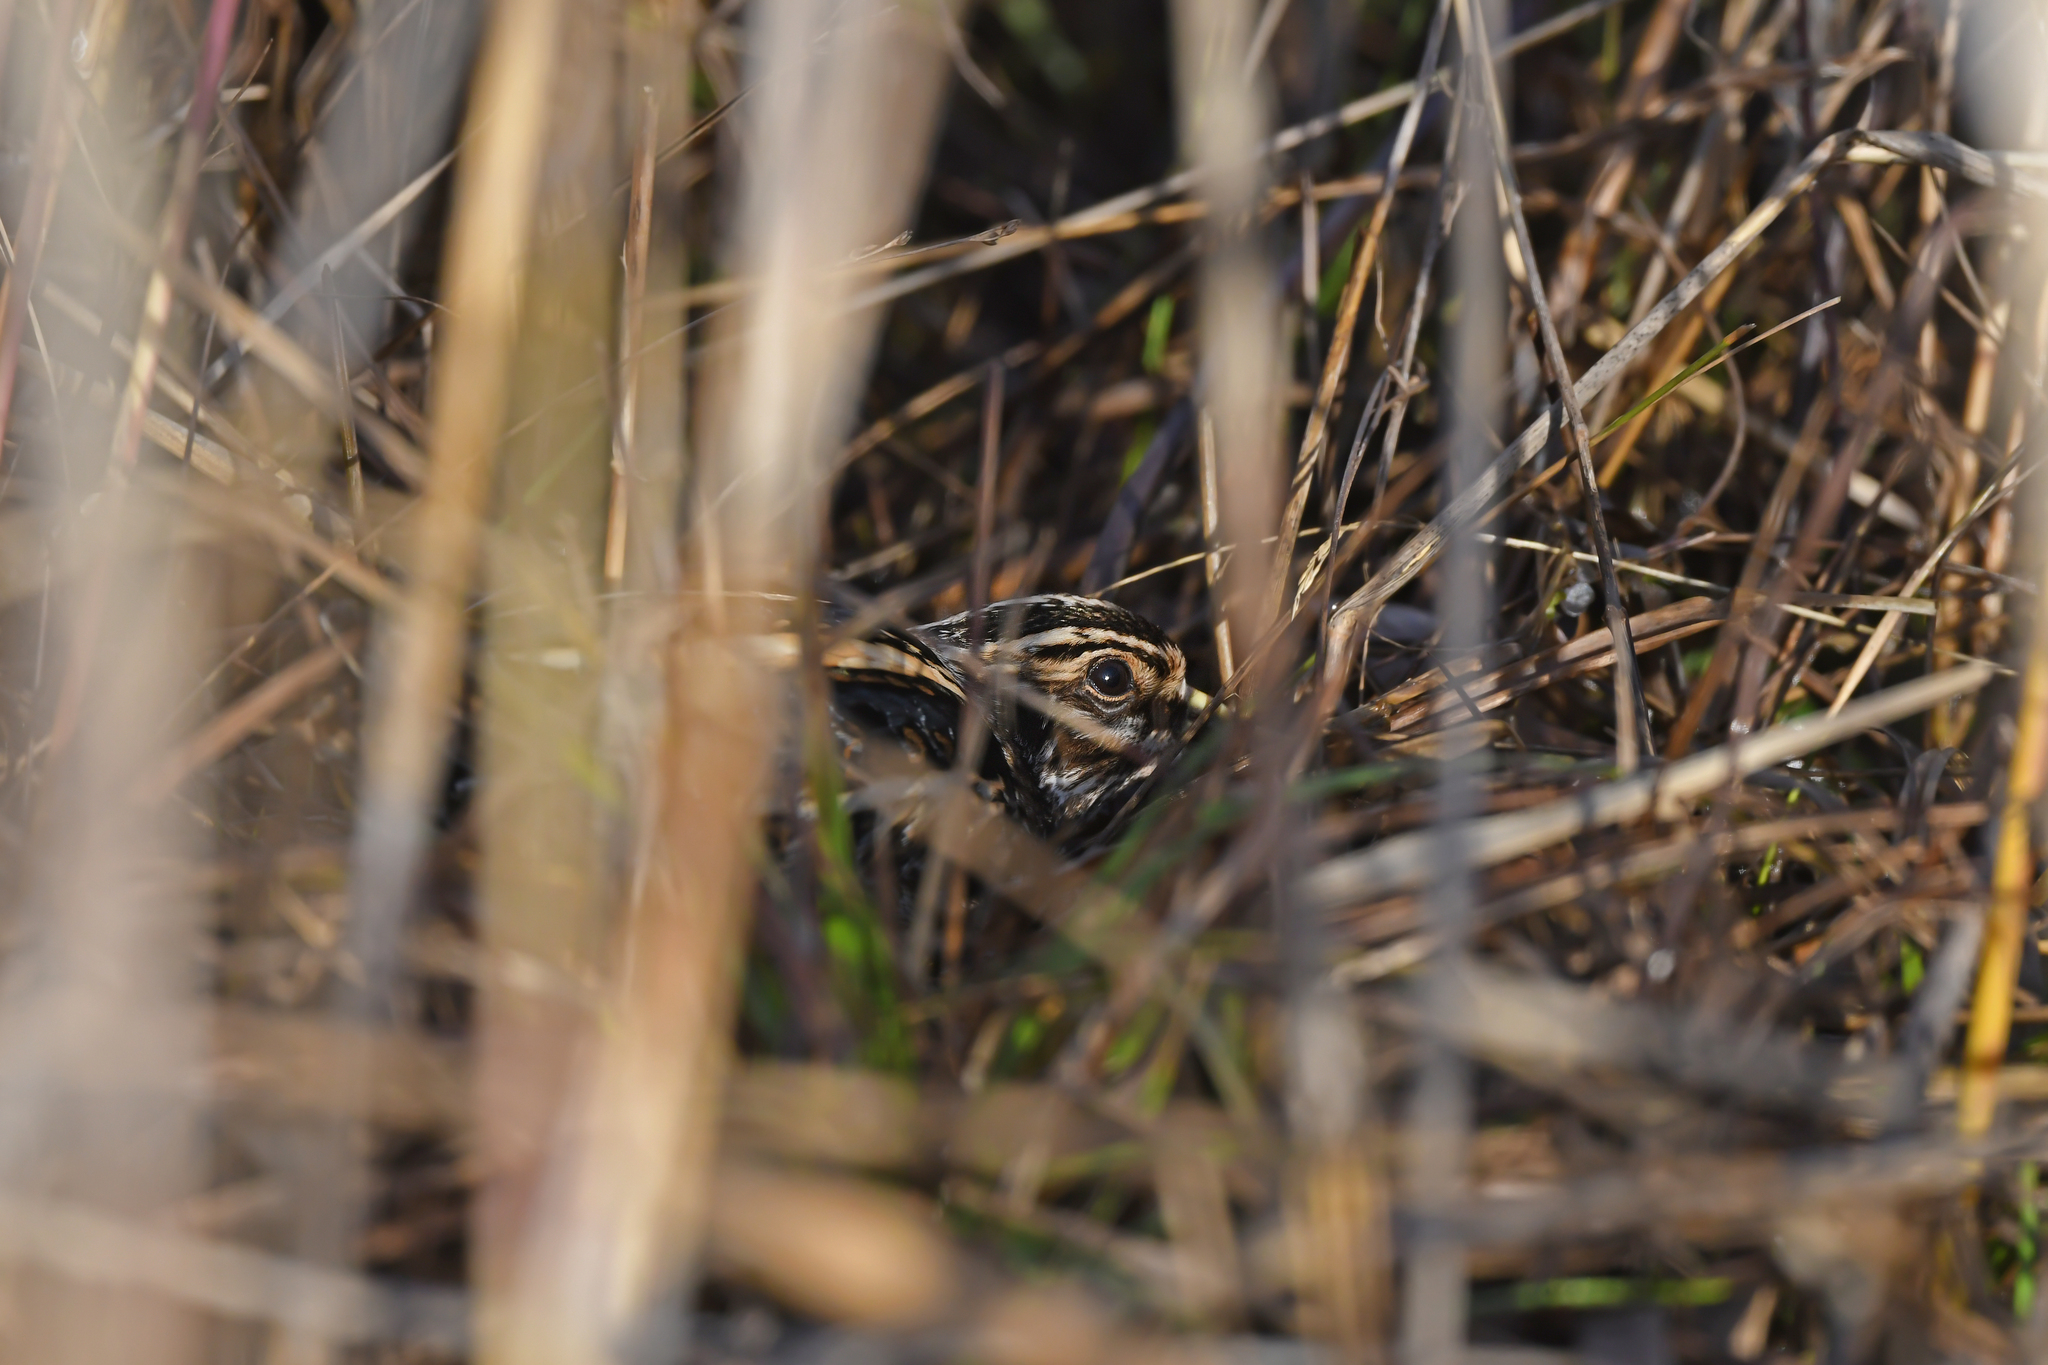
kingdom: Animalia
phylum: Chordata
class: Aves
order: Charadriiformes
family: Scolopacidae
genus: Lymnocryptes
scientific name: Lymnocryptes minimus
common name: Jack snipe
